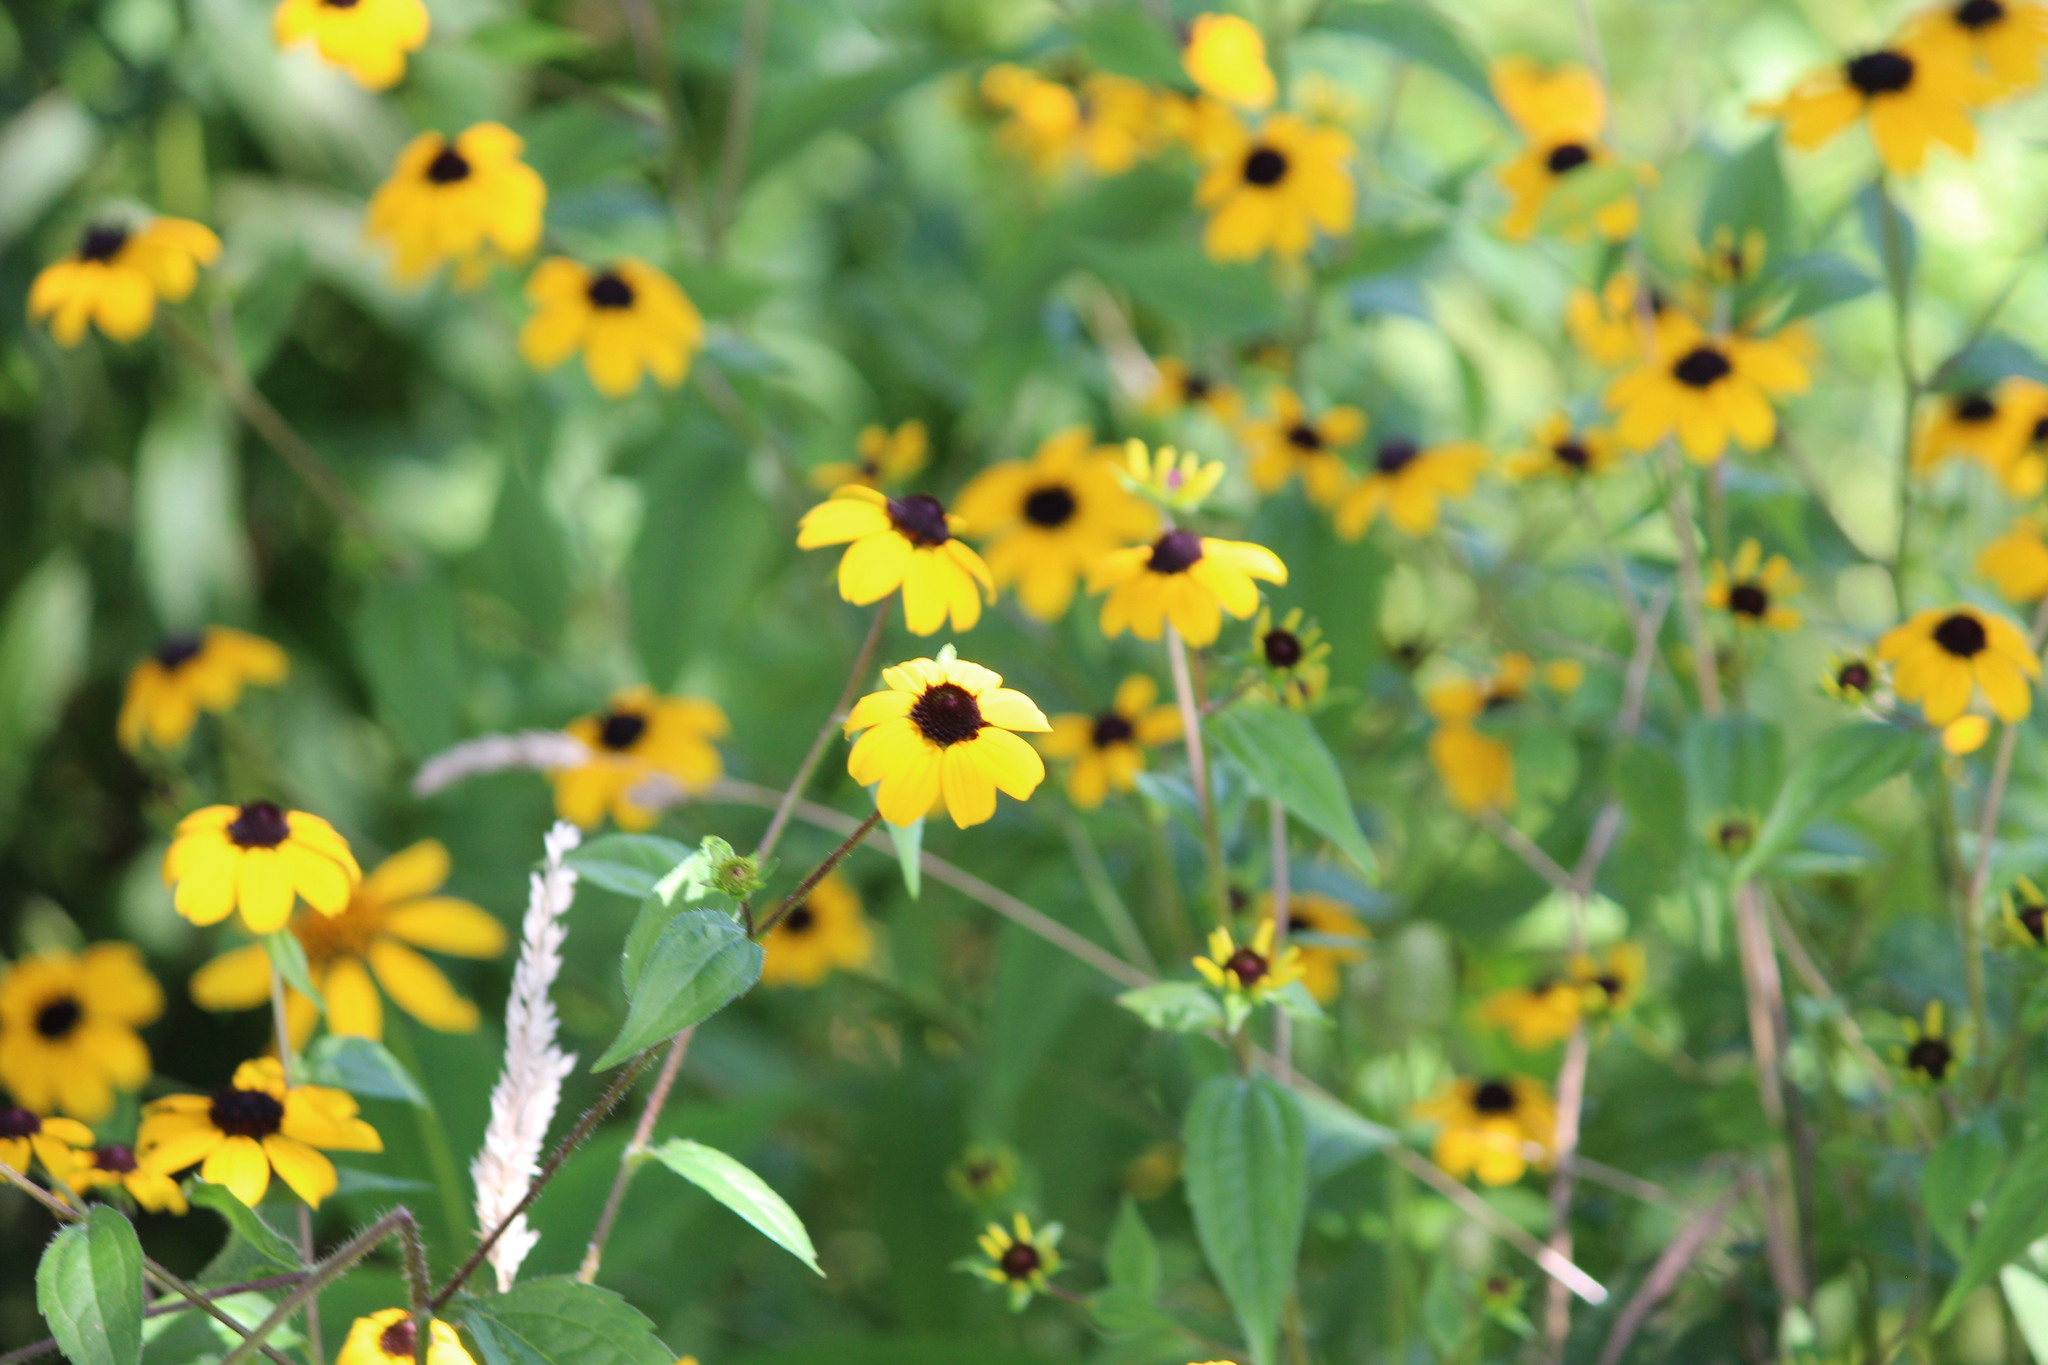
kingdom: Plantae
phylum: Tracheophyta
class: Magnoliopsida
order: Asterales
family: Asteraceae
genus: Rudbeckia
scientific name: Rudbeckia triloba
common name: Thin-leaved coneflower
